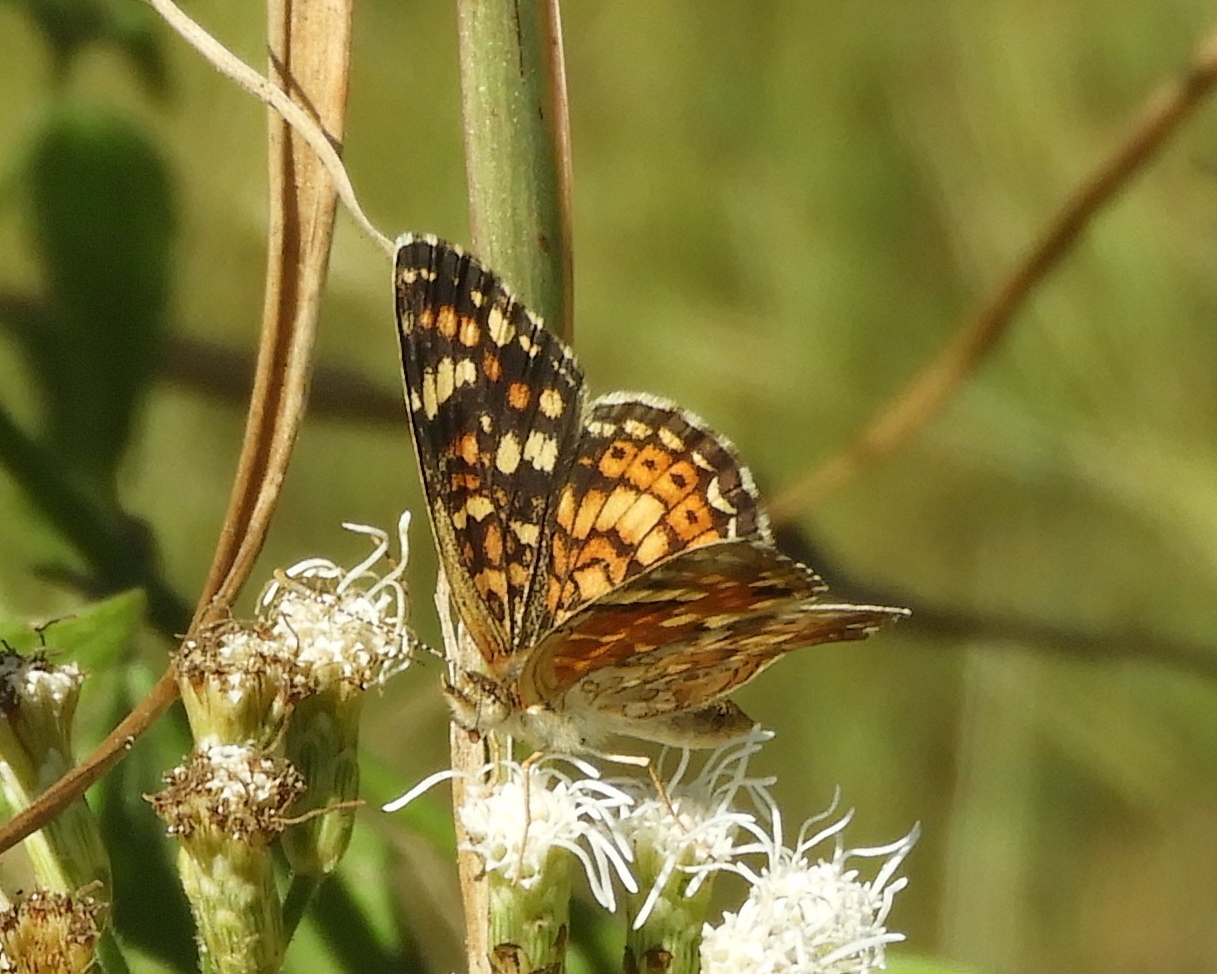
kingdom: Animalia
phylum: Arthropoda
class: Insecta
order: Lepidoptera
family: Nymphalidae
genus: Phyciodes
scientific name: Phyciodes picta
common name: Painted crescent
